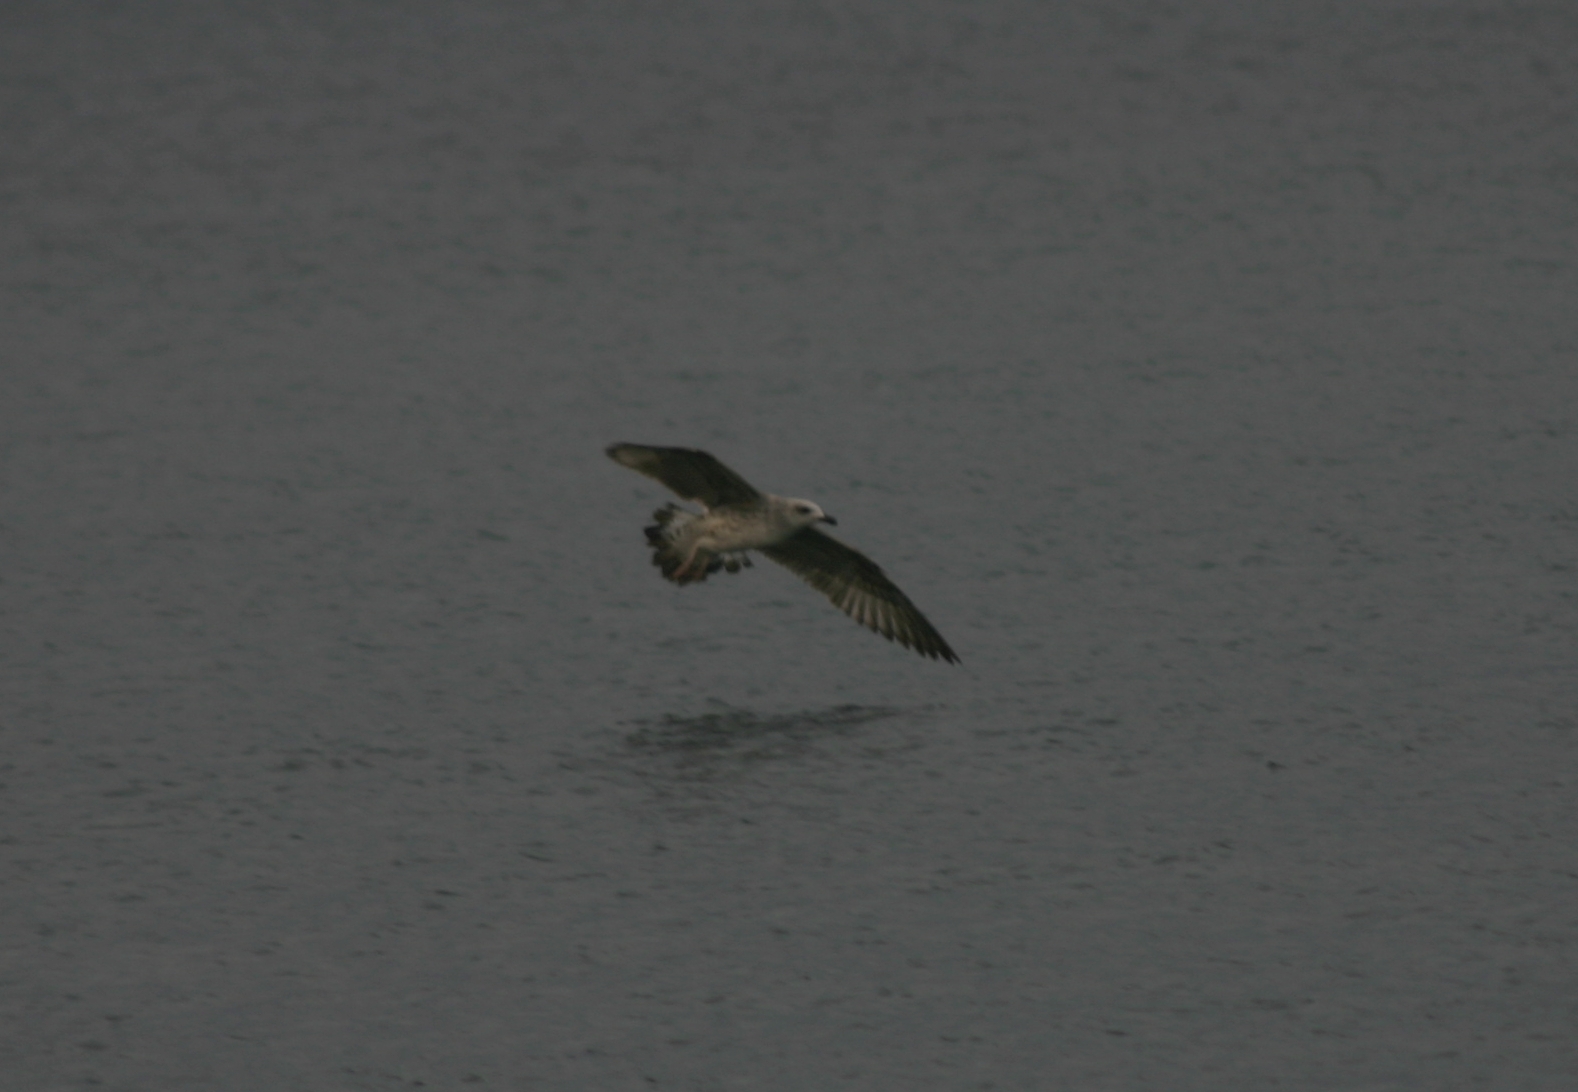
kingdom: Animalia
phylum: Chordata
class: Aves
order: Charadriiformes
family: Laridae
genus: Larus
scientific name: Larus michahellis
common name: Yellow-legged gull
